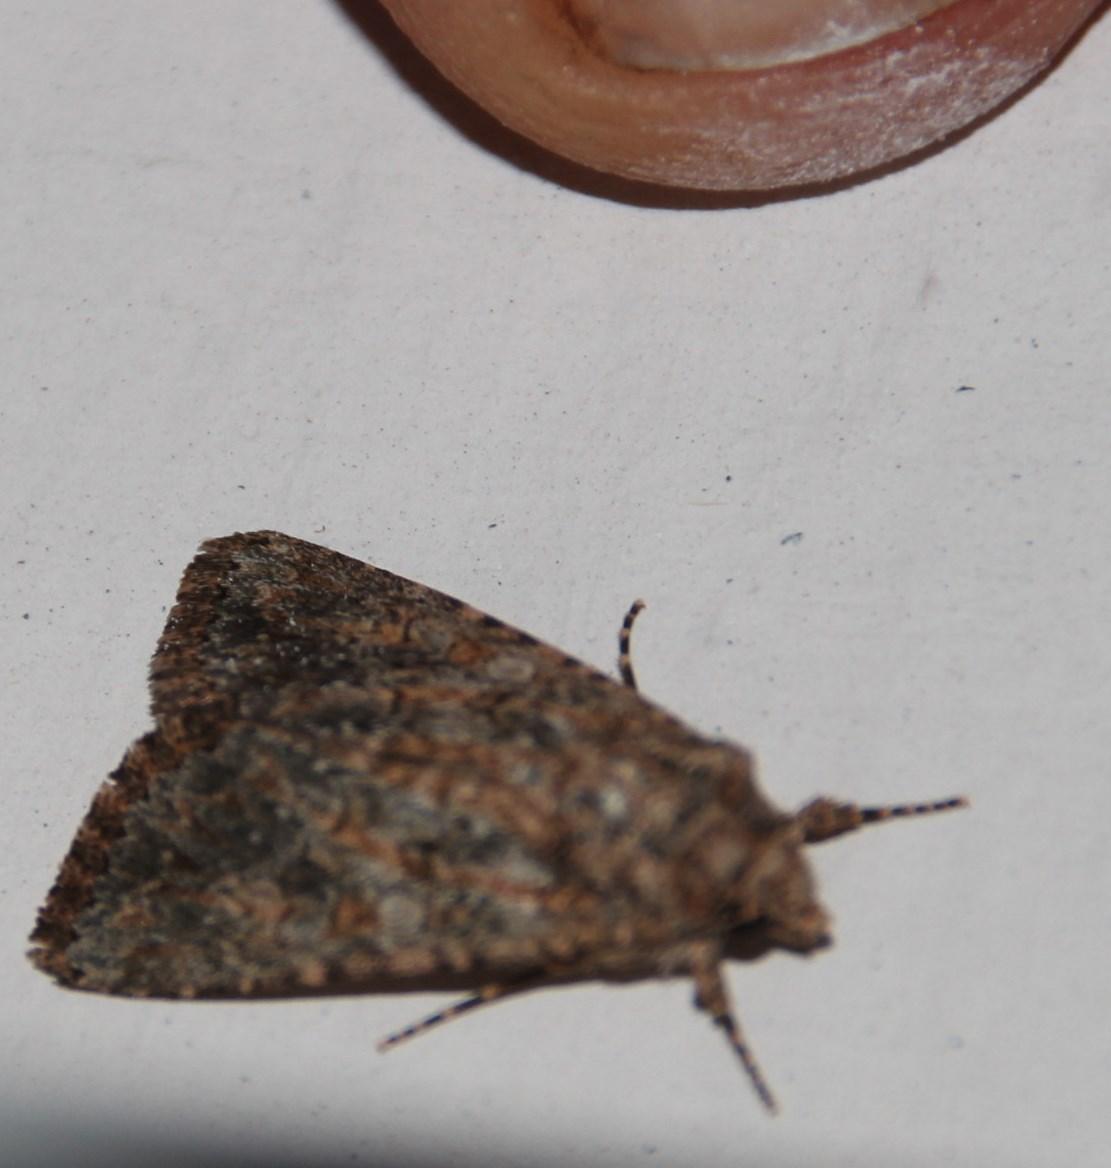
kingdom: Animalia
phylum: Arthropoda
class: Insecta
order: Lepidoptera
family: Noctuidae
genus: Cardepia
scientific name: Cardepia definiens
